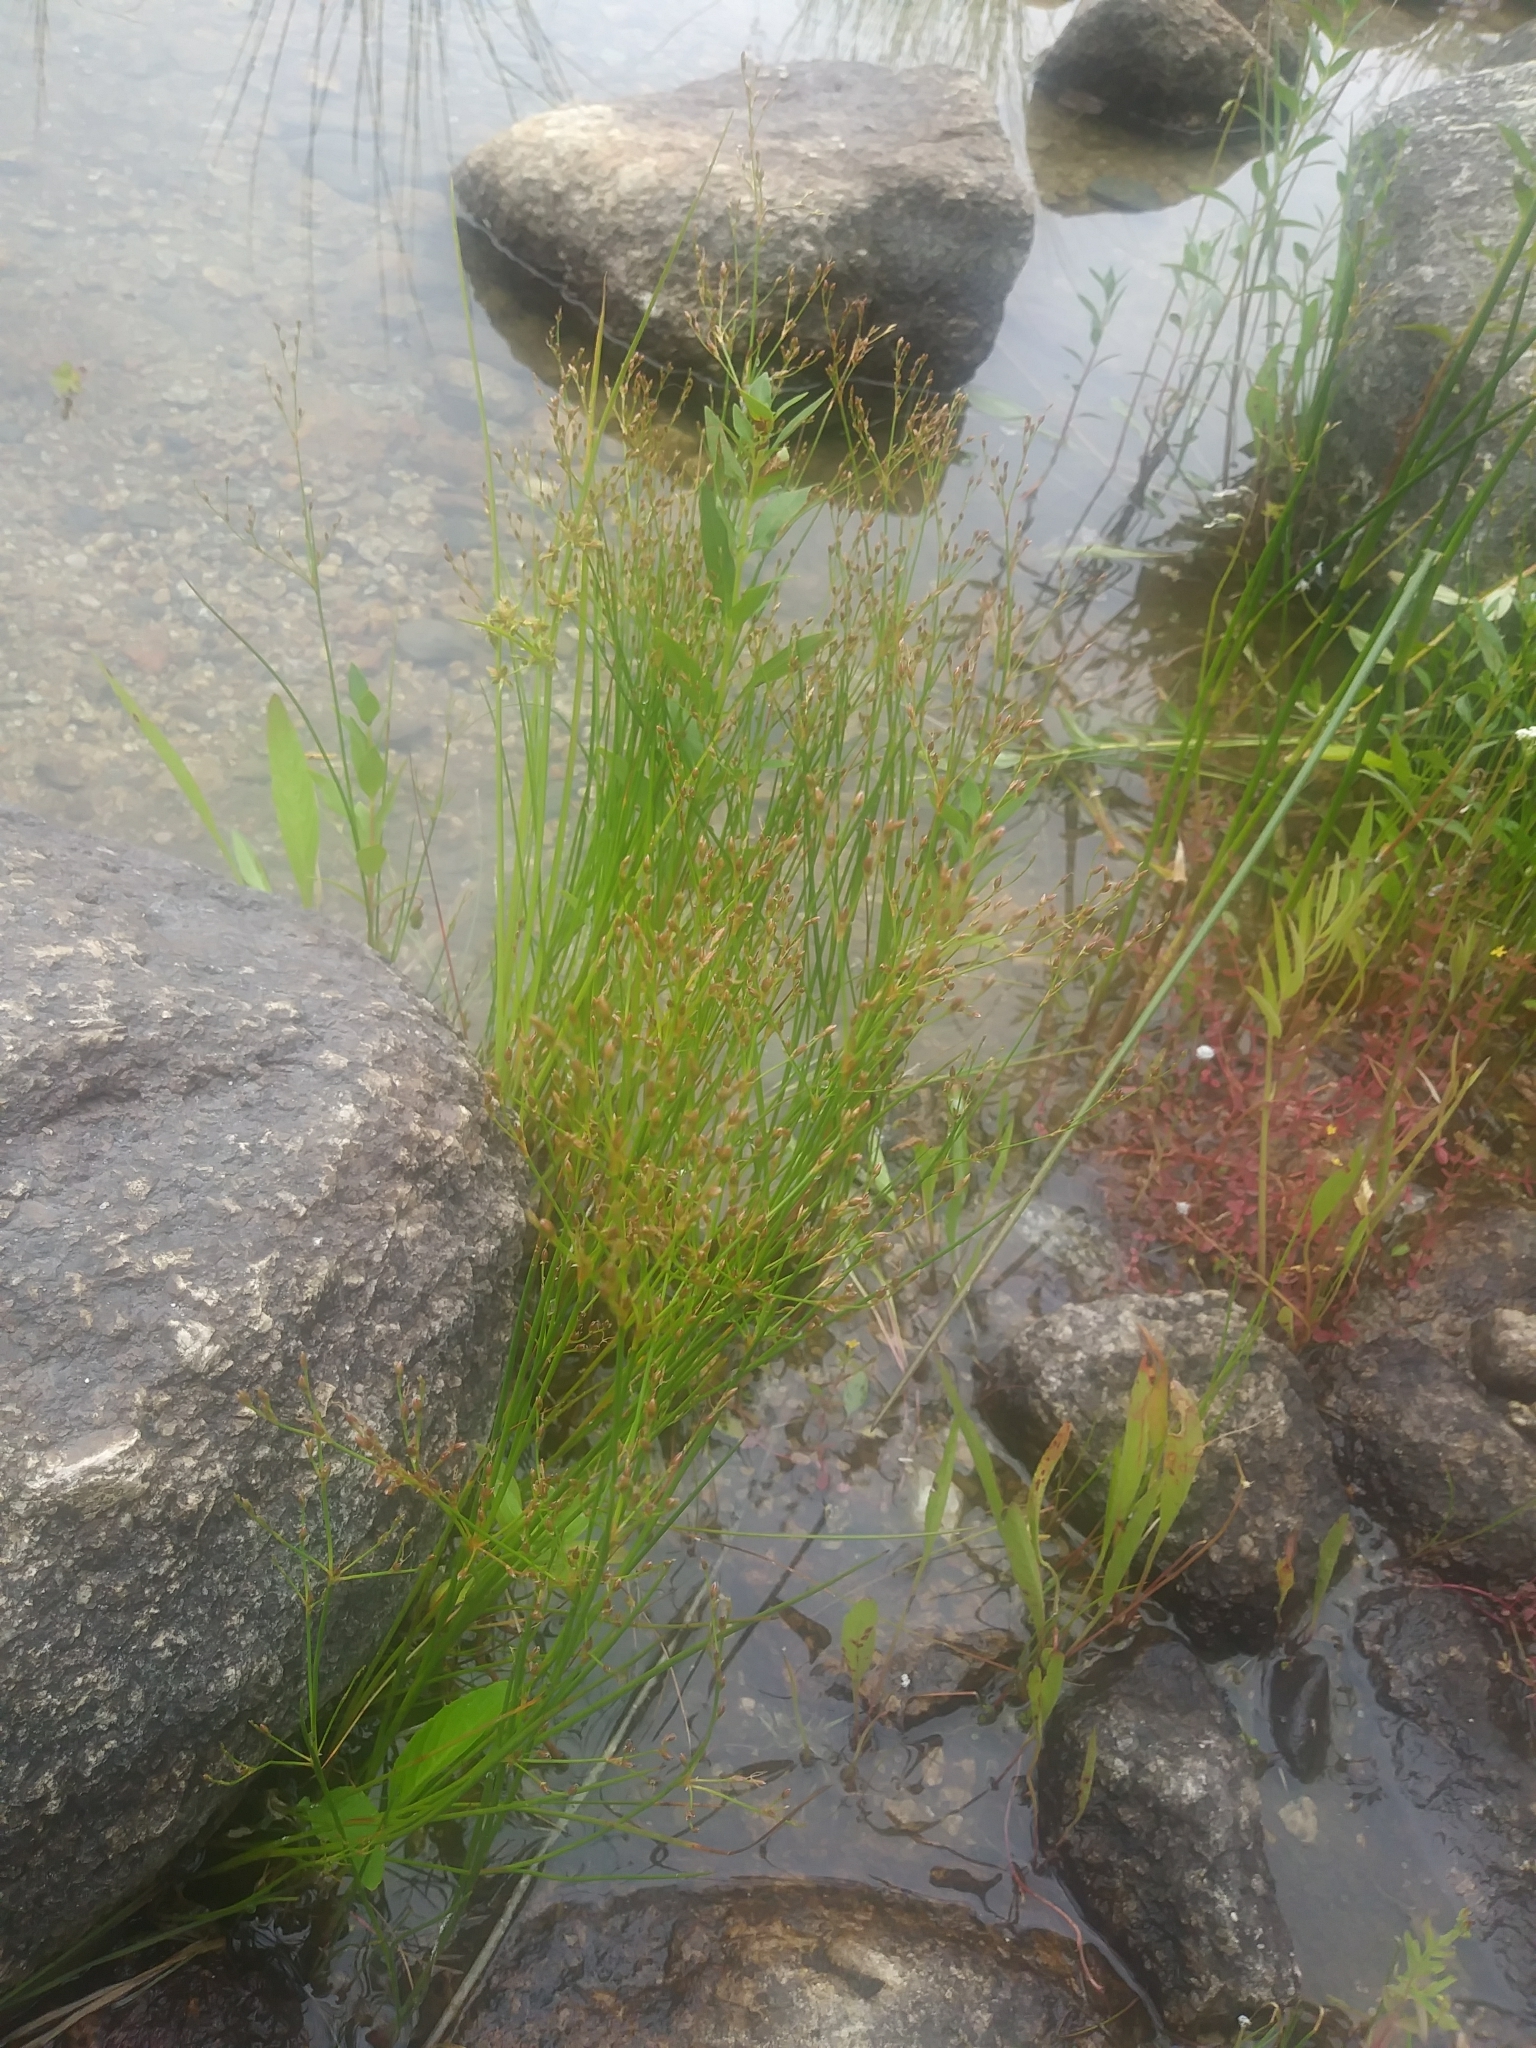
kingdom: Plantae
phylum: Tracheophyta
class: Liliopsida
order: Poales
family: Juncaceae
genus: Juncus
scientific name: Juncus pelocarpus
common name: Brown-fruited rush
